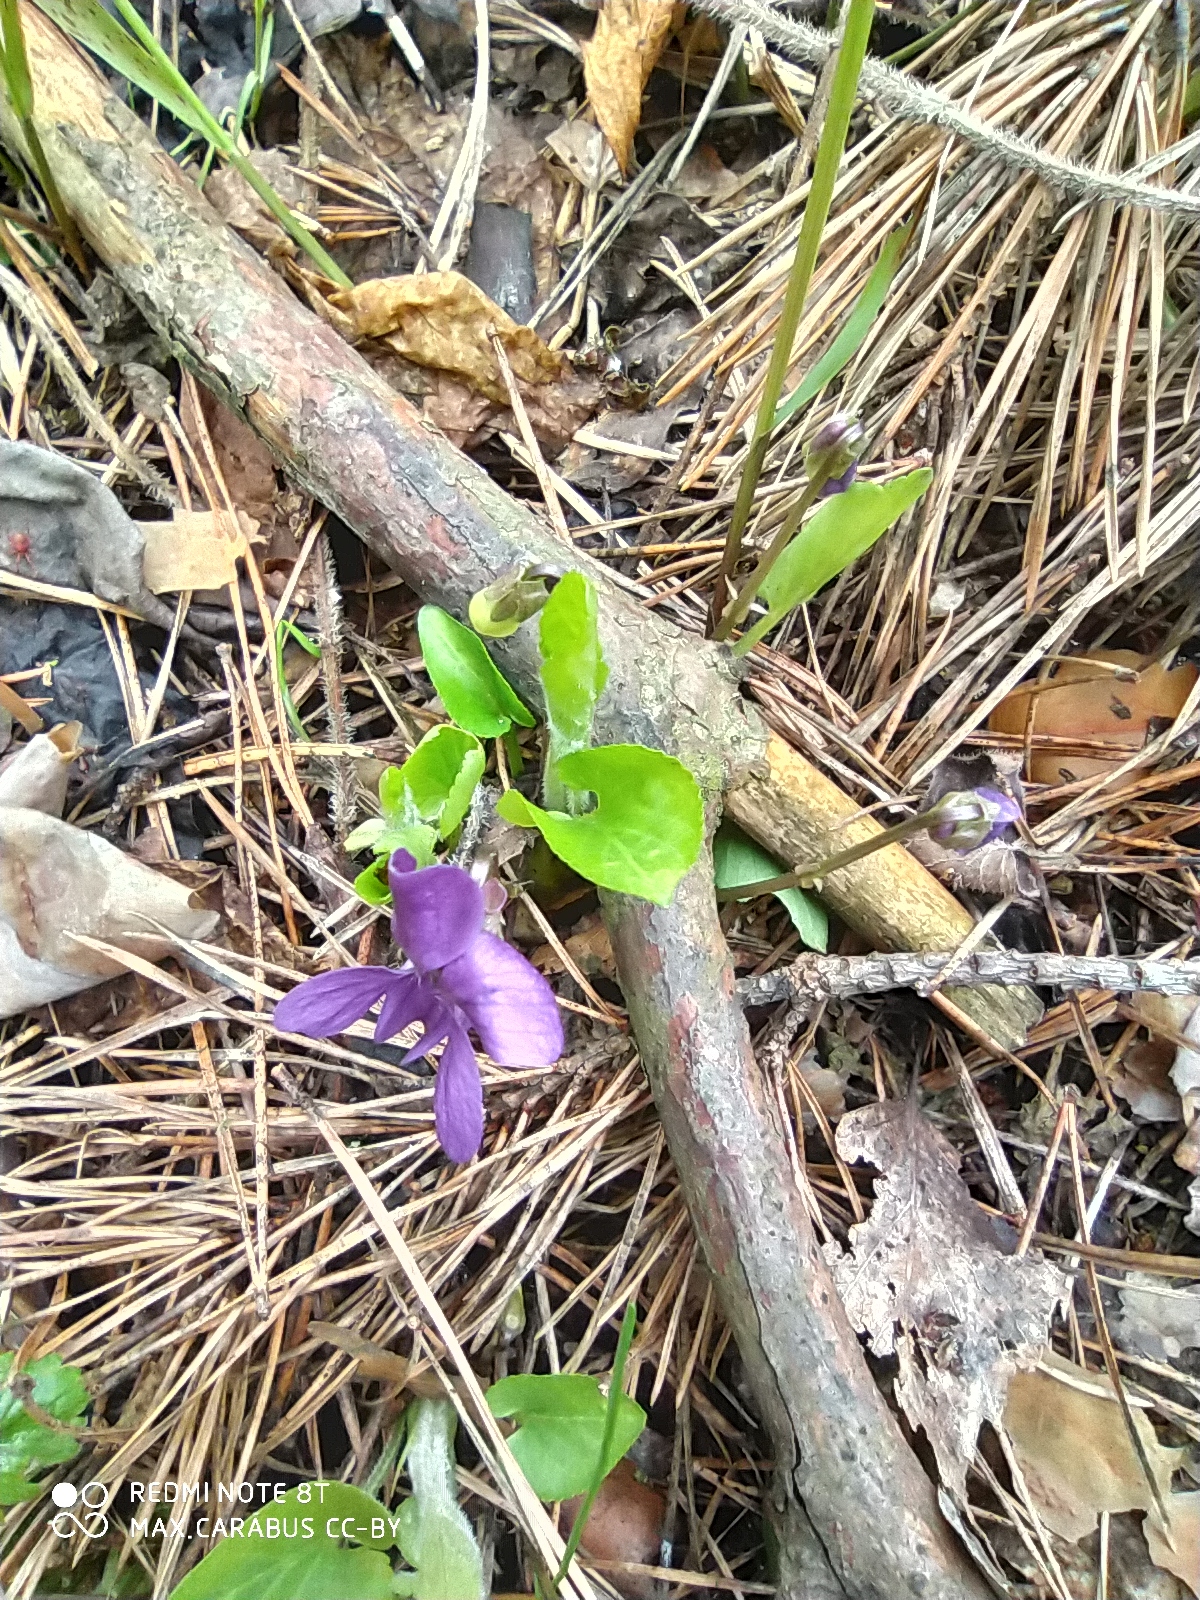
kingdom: Plantae
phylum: Tracheophyta
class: Magnoliopsida
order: Malpighiales
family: Violaceae
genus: Viola
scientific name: Viola hirta
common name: Hairy violet
